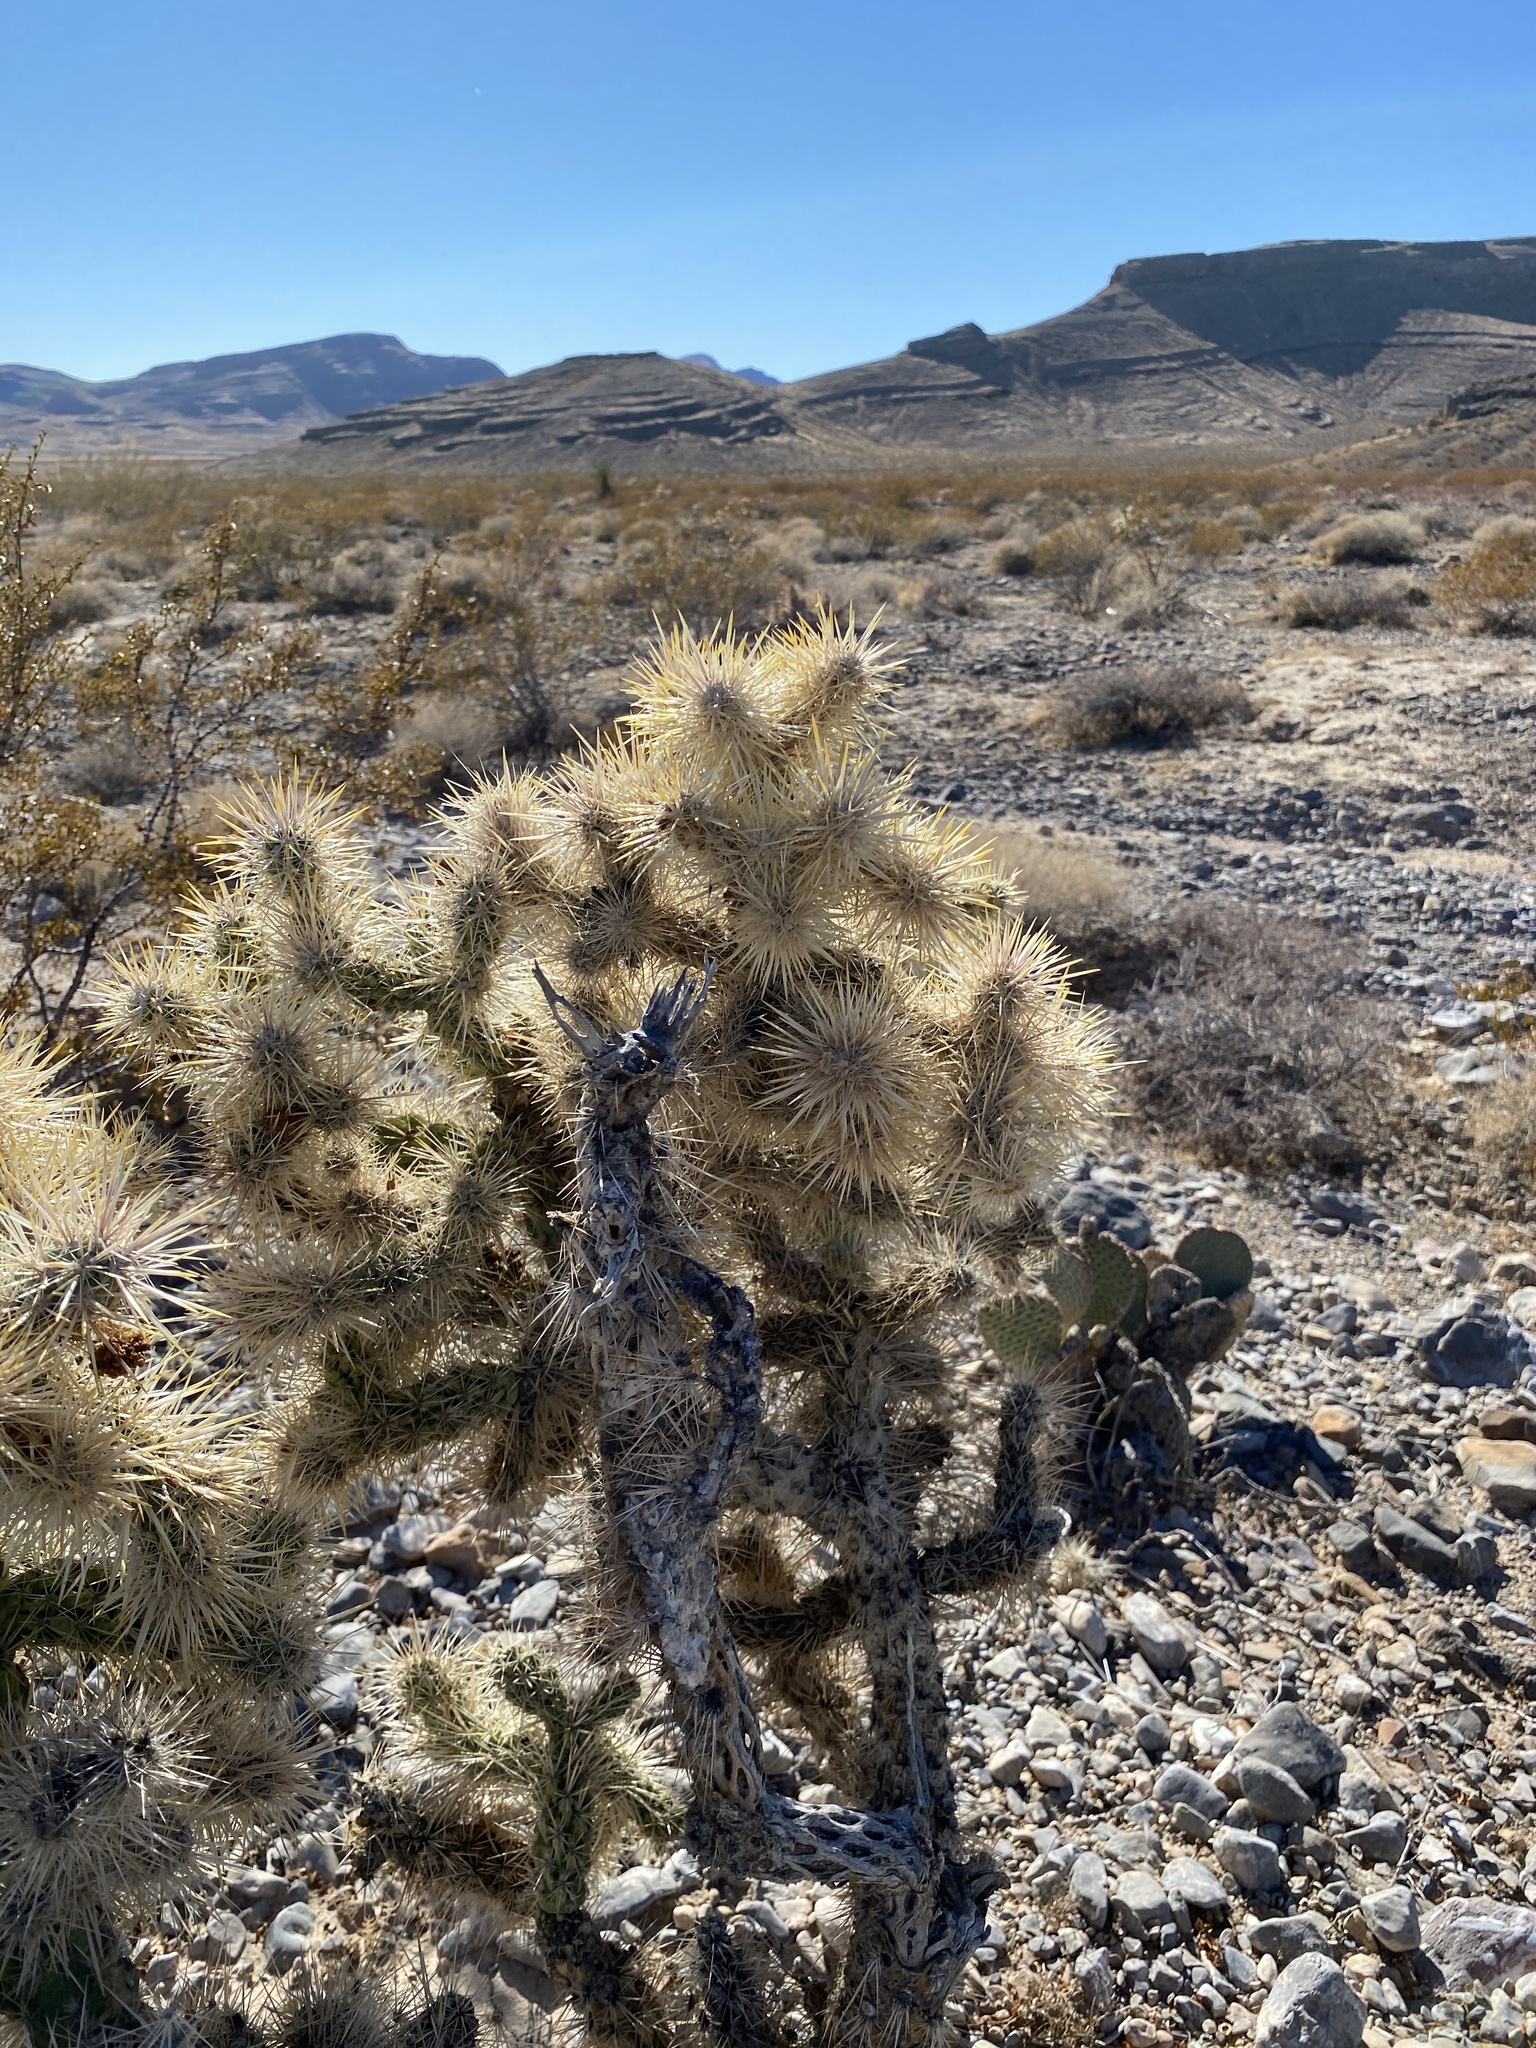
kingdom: Plantae
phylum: Tracheophyta
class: Magnoliopsida
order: Caryophyllales
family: Cactaceae
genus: Cylindropuntia
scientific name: Cylindropuntia echinocarpa
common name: Ground cholla
